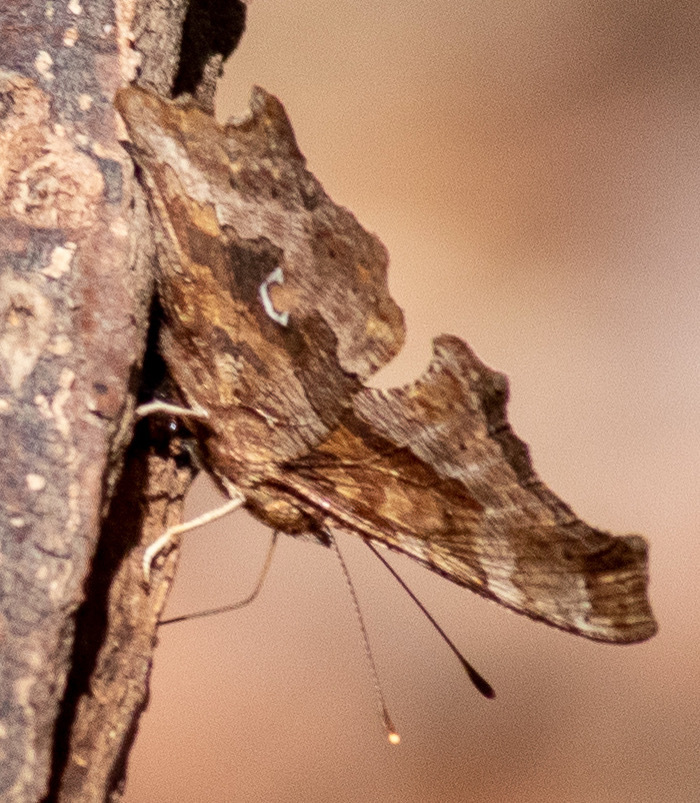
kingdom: Animalia
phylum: Arthropoda
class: Insecta
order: Lepidoptera
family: Nymphalidae
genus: Polygonia
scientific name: Polygonia comma
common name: Eastern comma
